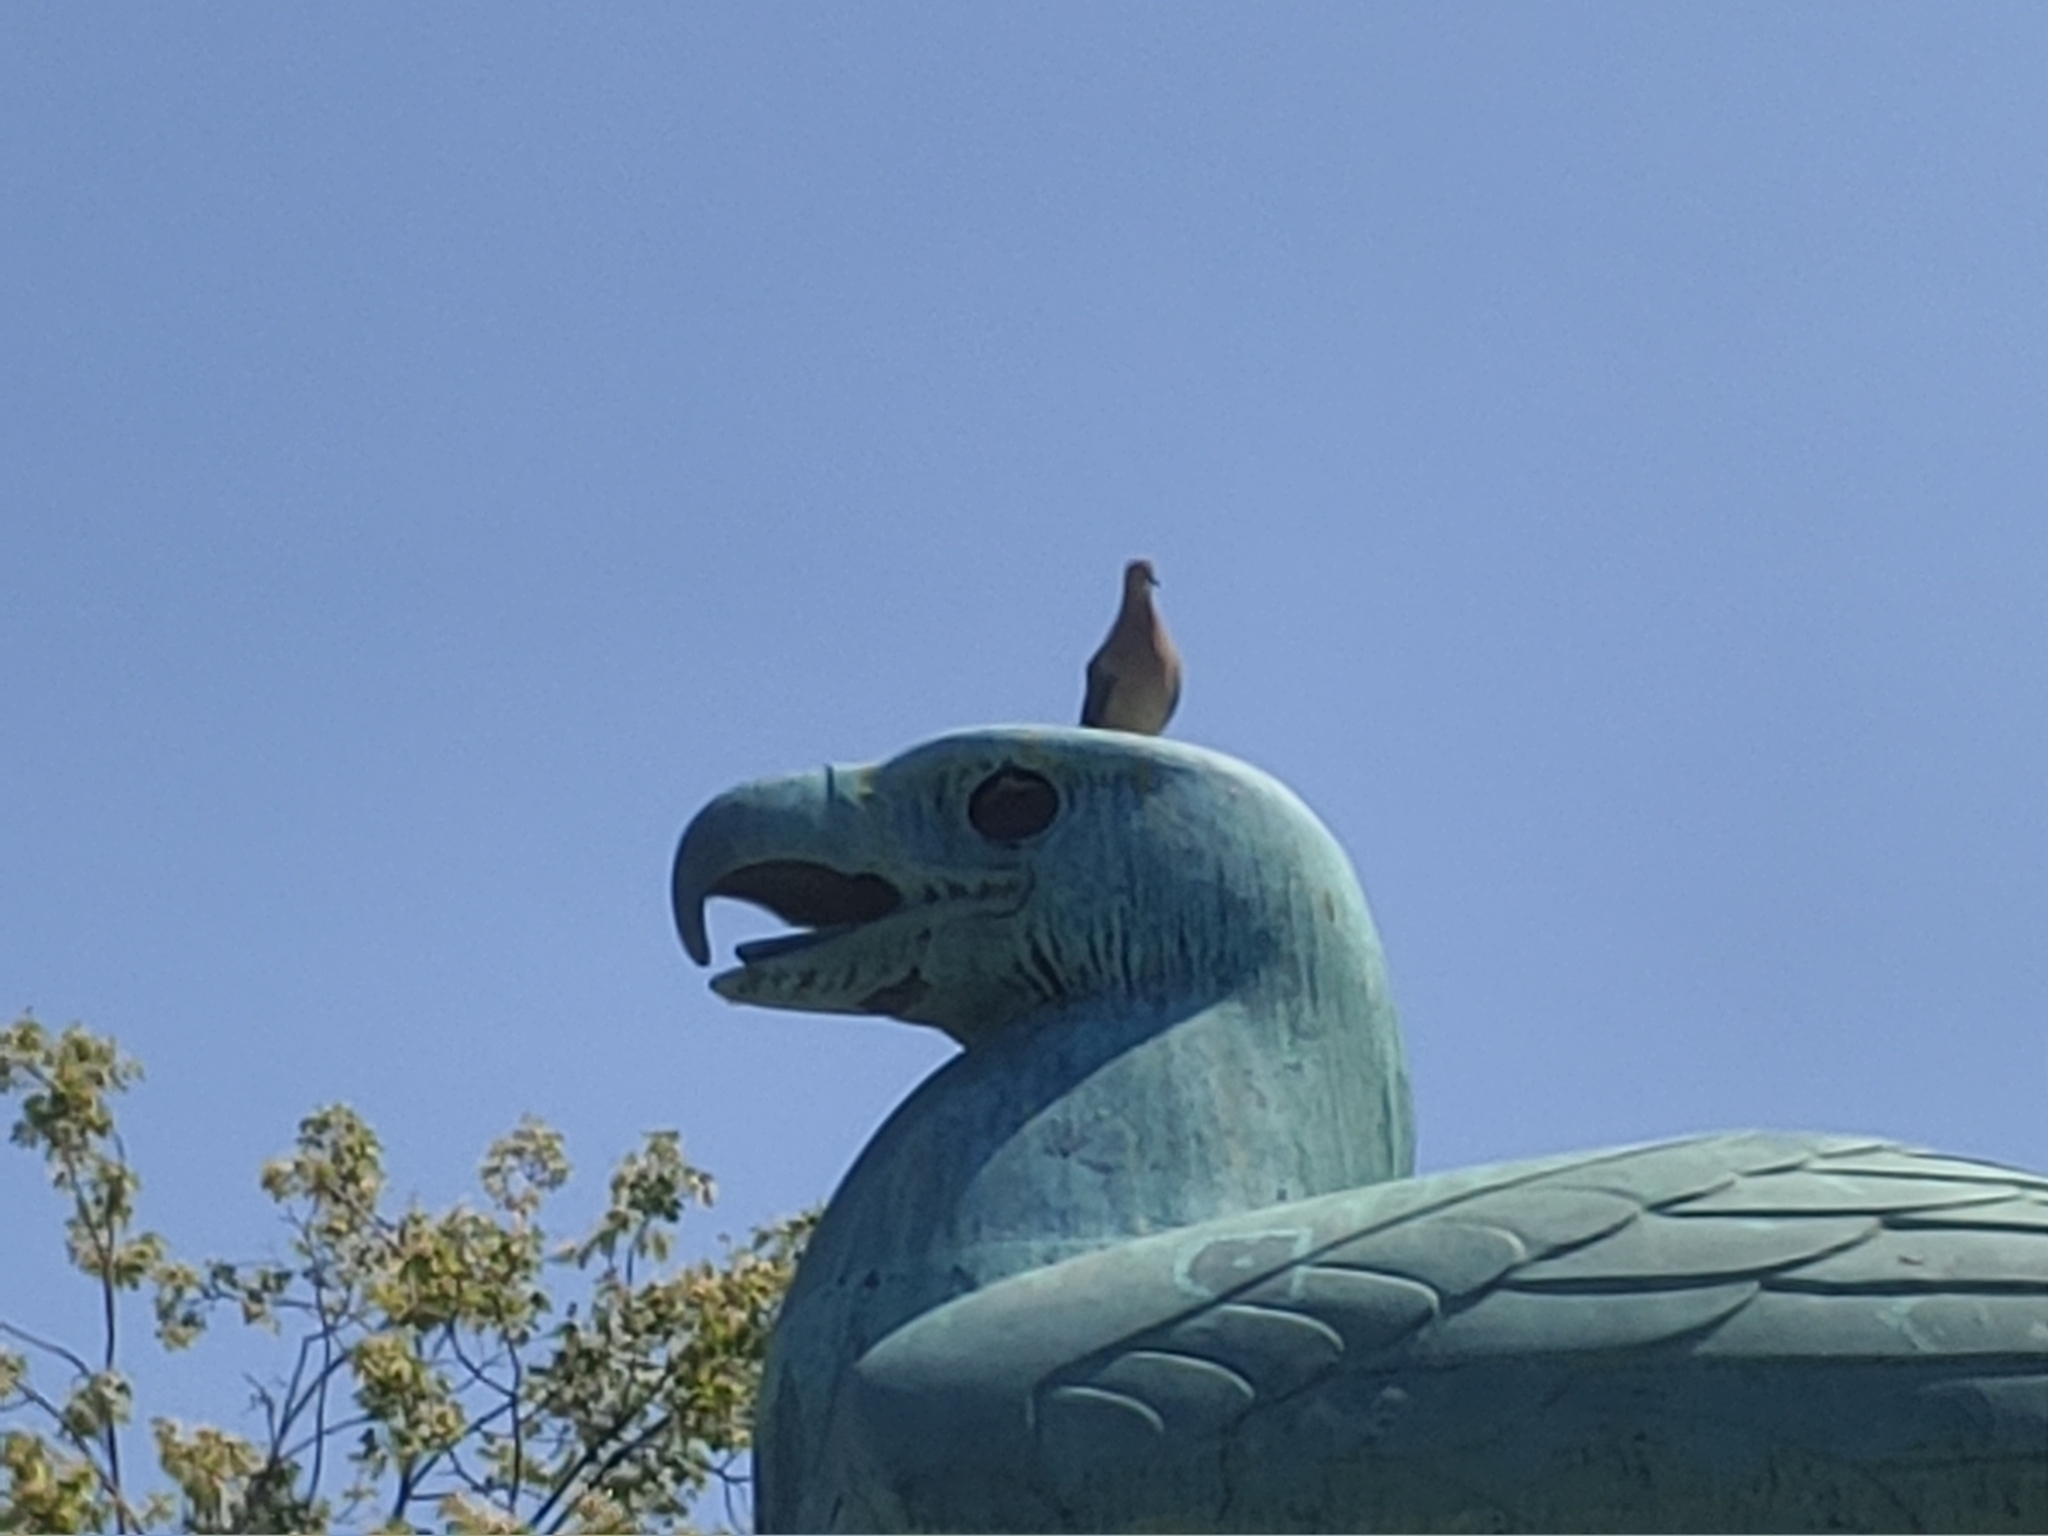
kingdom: Animalia
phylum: Chordata
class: Aves
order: Columbiformes
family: Columbidae
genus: Zenaida
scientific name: Zenaida macroura
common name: Mourning dove
